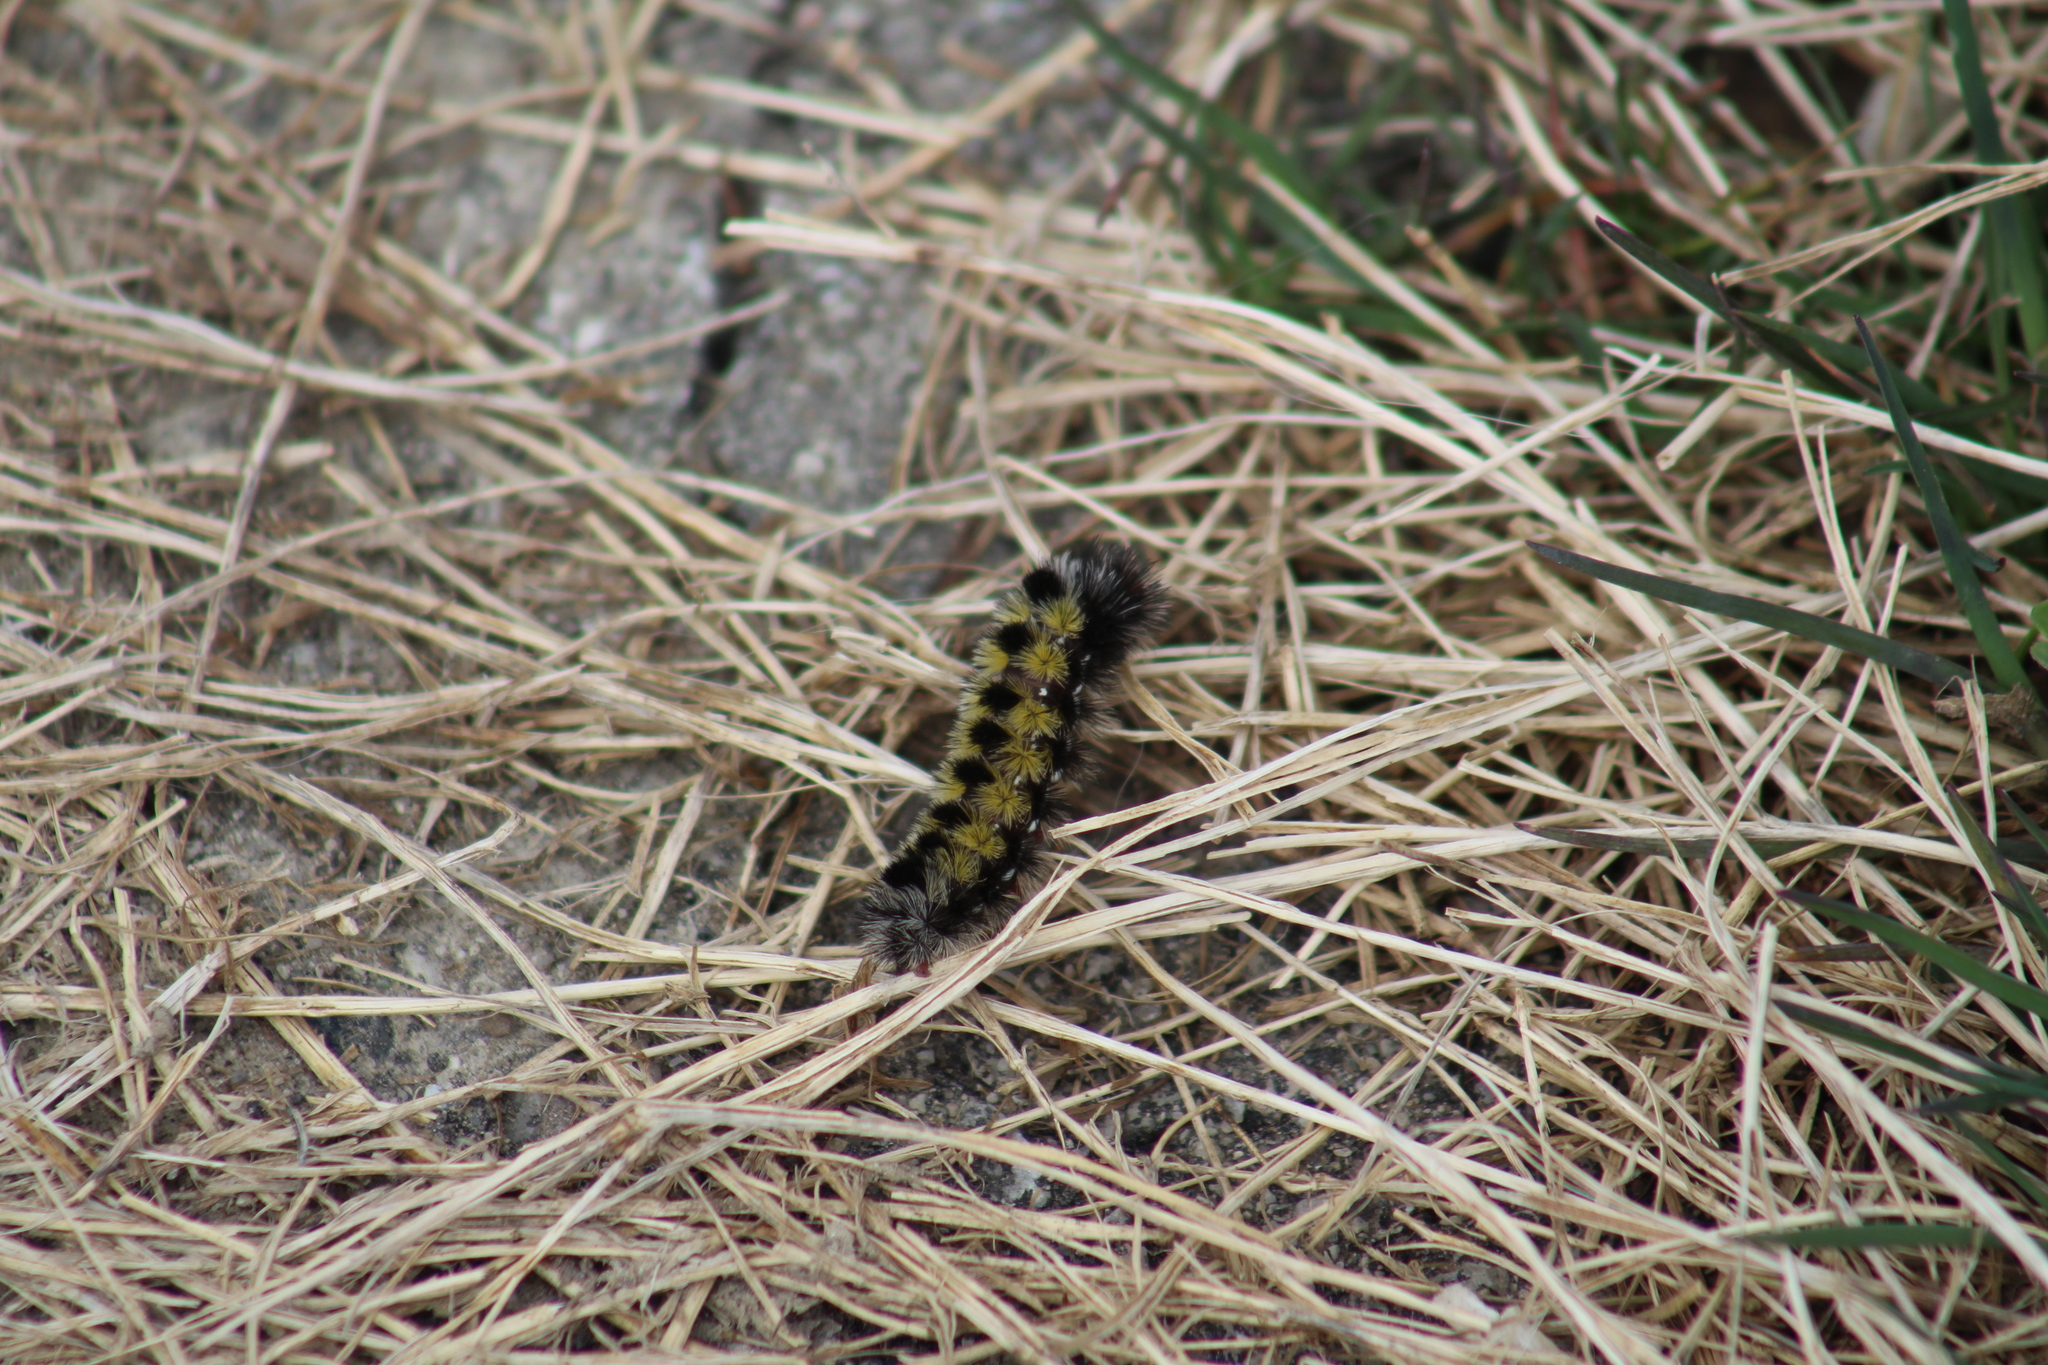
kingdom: Animalia
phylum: Arthropoda
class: Insecta
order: Lepidoptera
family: Erebidae
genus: Ctenucha
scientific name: Ctenucha virginica
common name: Virginia ctenucha moth
